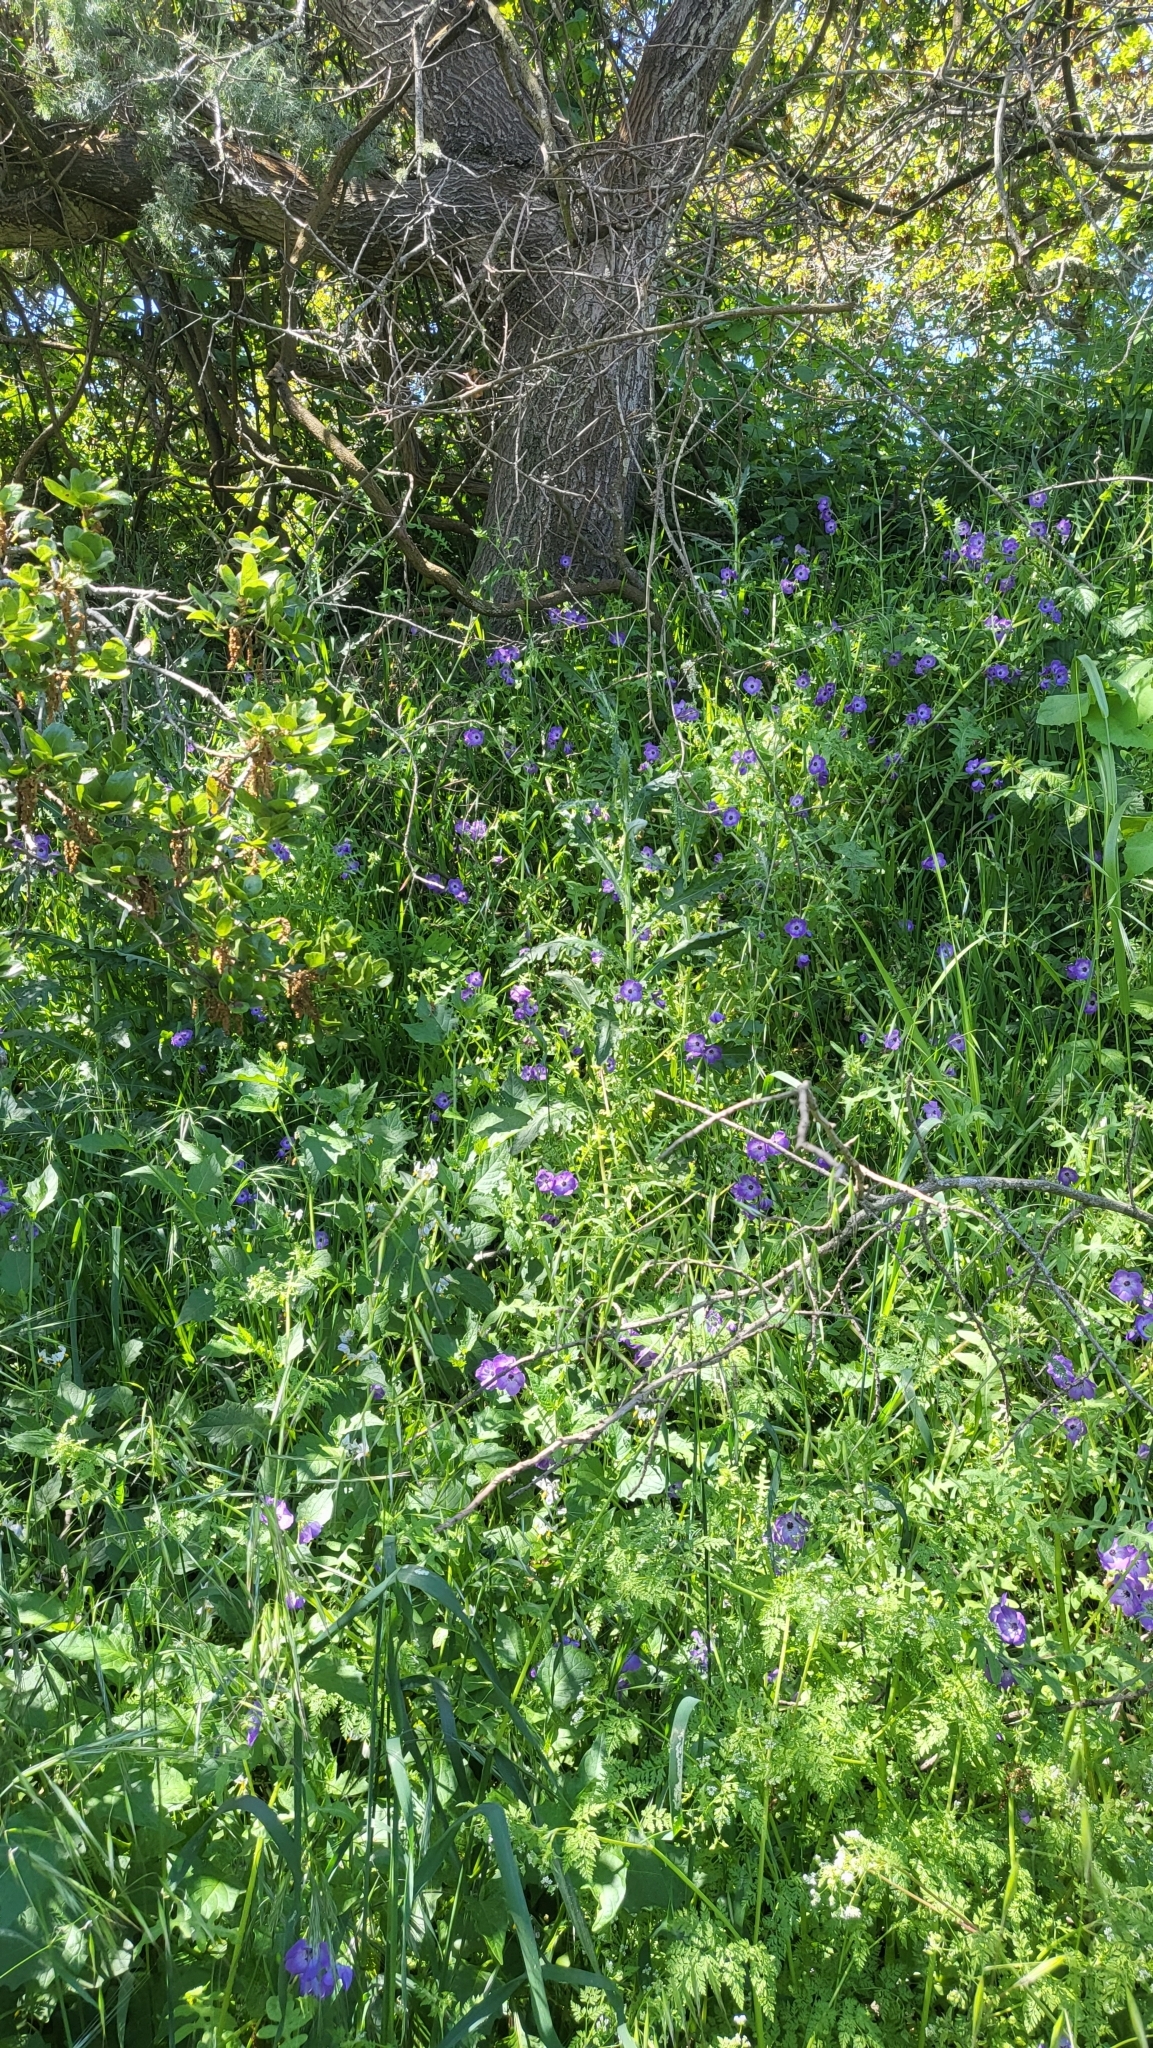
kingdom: Plantae
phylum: Tracheophyta
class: Magnoliopsida
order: Boraginales
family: Hydrophyllaceae
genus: Pholistoma
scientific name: Pholistoma auritum
